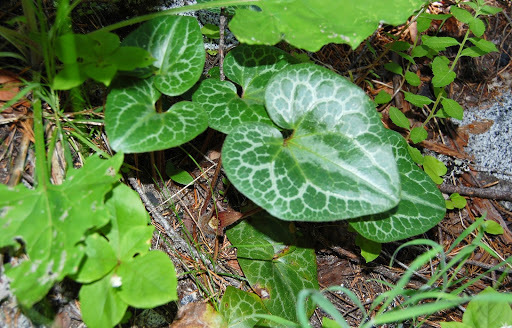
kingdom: Plantae
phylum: Tracheophyta
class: Magnoliopsida
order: Piperales
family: Aristolochiaceae
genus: Asarum
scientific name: Asarum hartwegii
